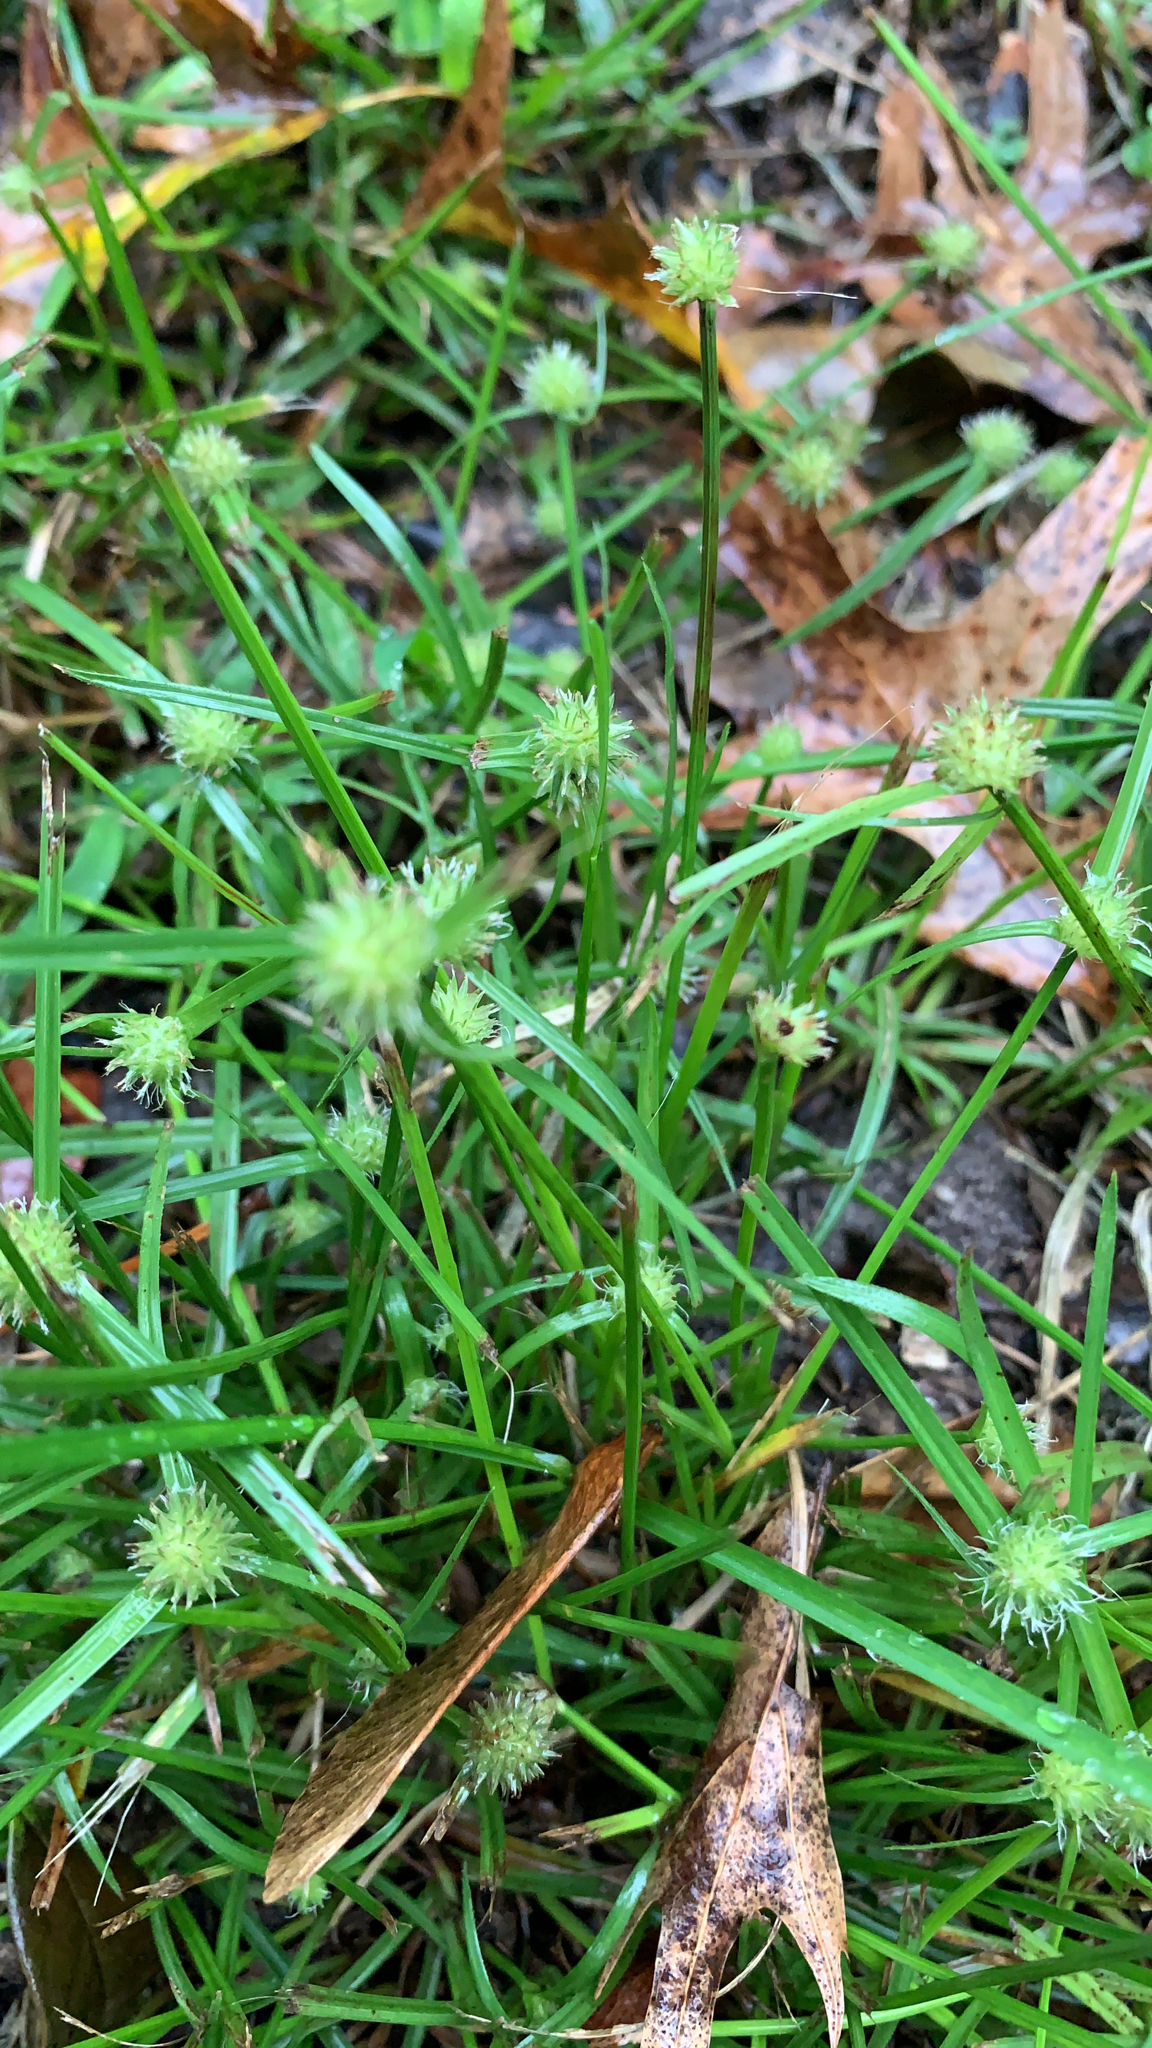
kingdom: Plantae
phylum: Tracheophyta
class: Liliopsida
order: Poales
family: Cyperaceae
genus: Cyperus
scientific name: Cyperus brevifolioides
